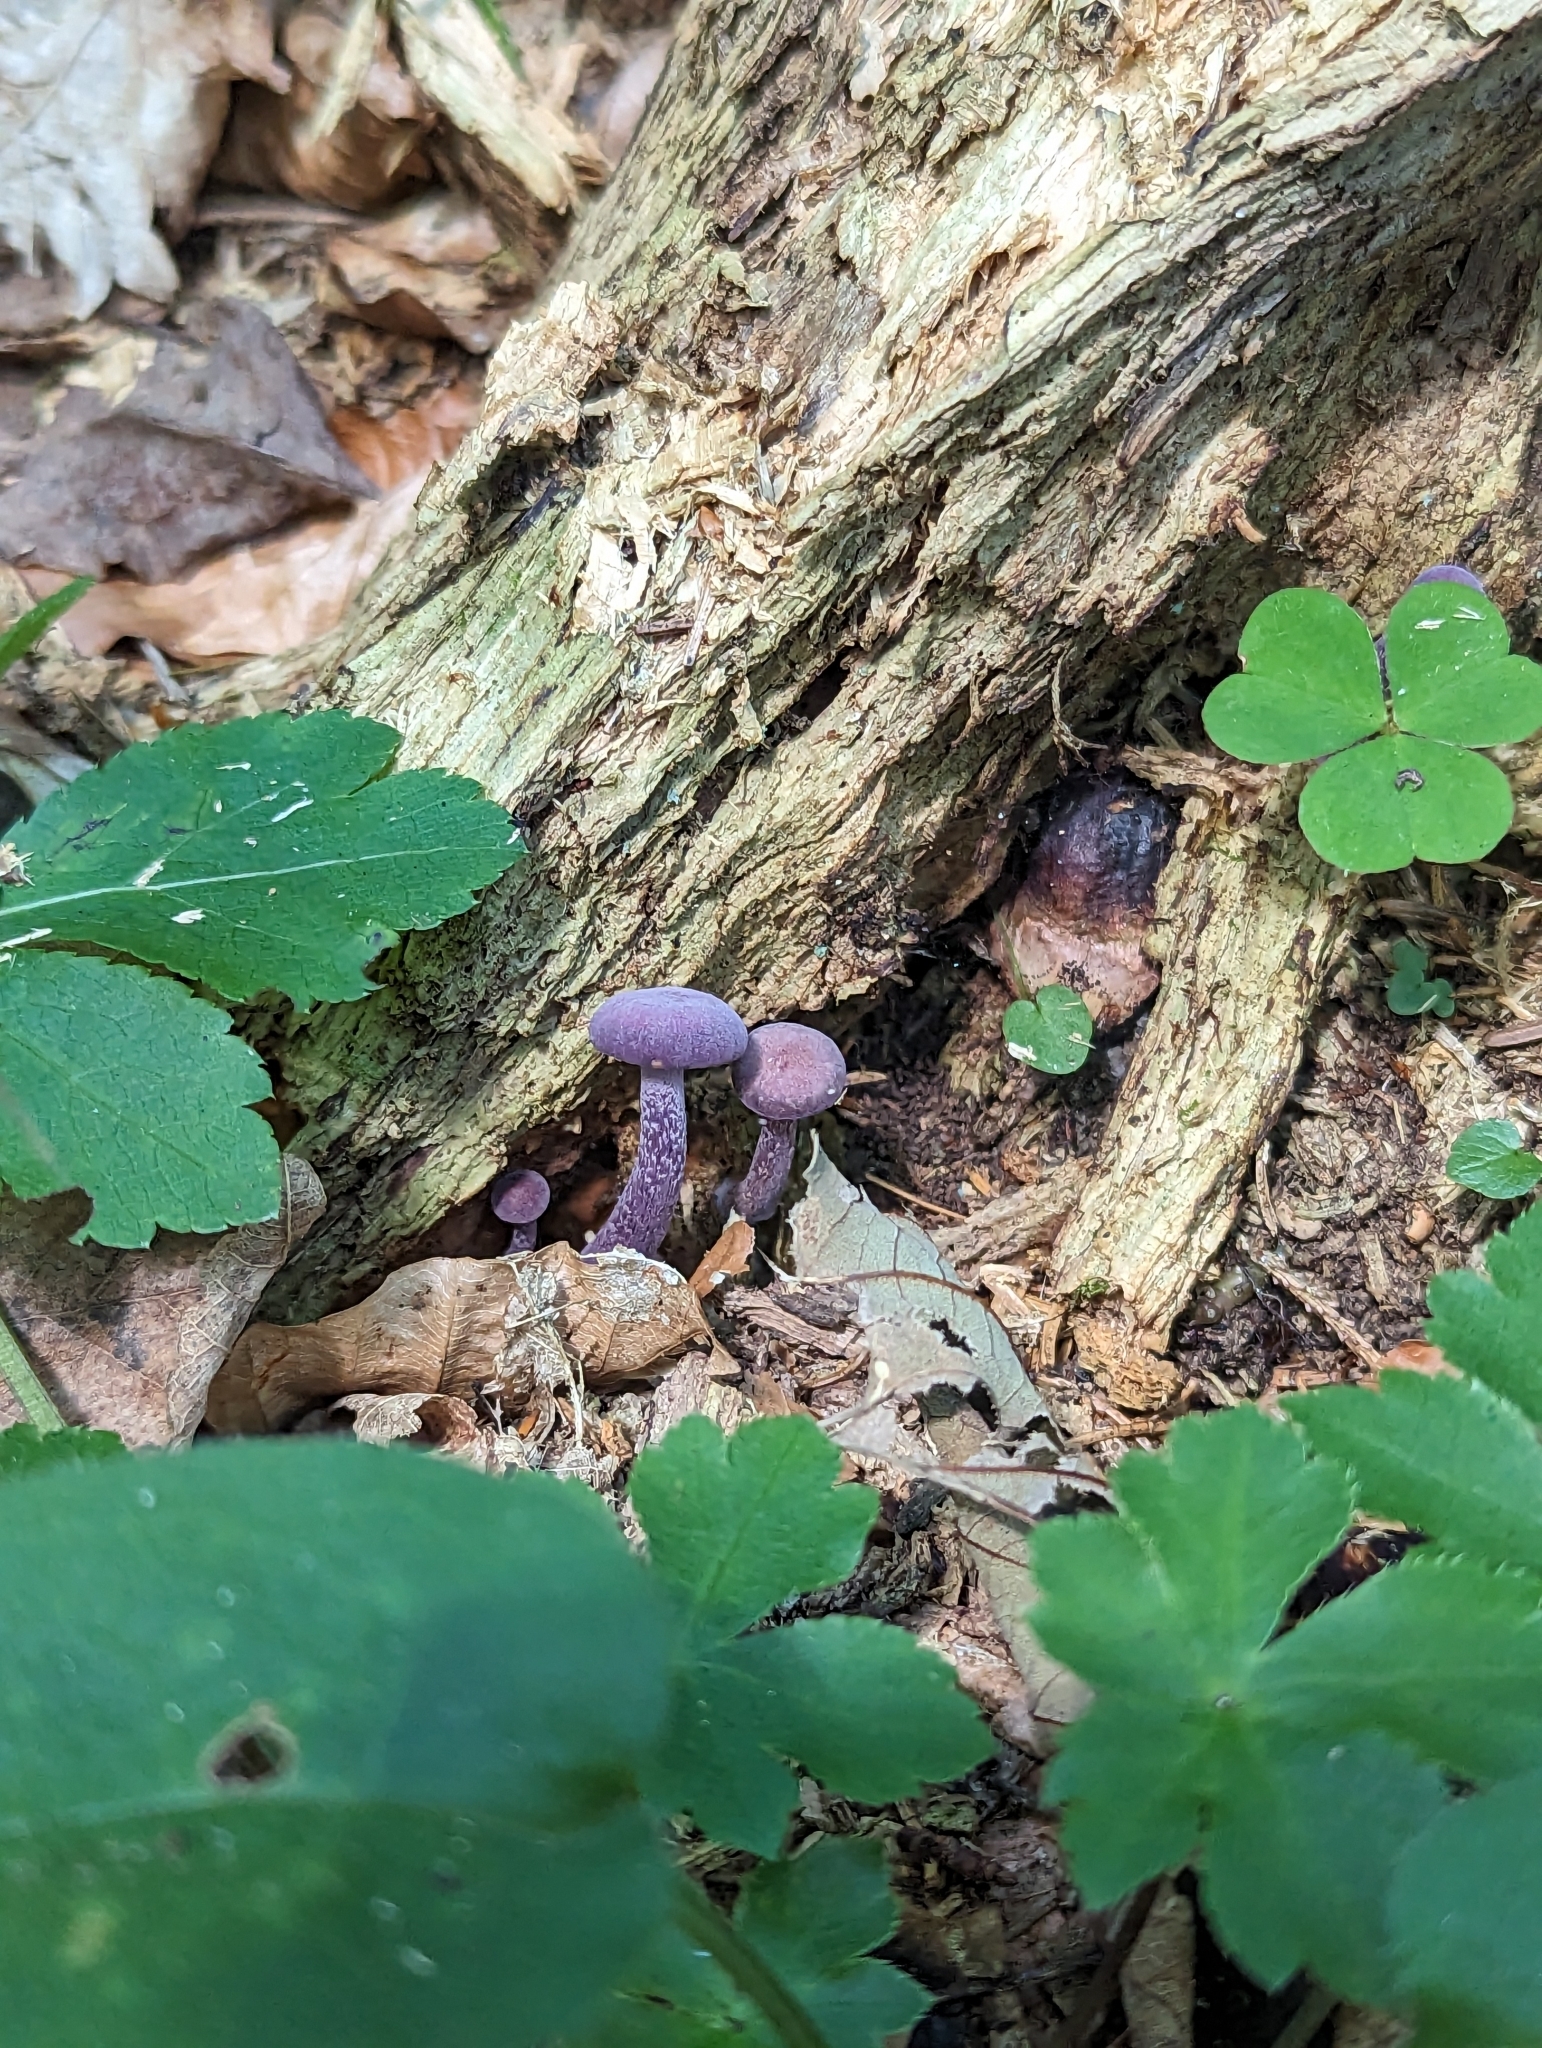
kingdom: Fungi
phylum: Basidiomycota
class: Agaricomycetes
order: Agaricales
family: Hydnangiaceae
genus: Laccaria
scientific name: Laccaria amethystina
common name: Amethyst deceiver
